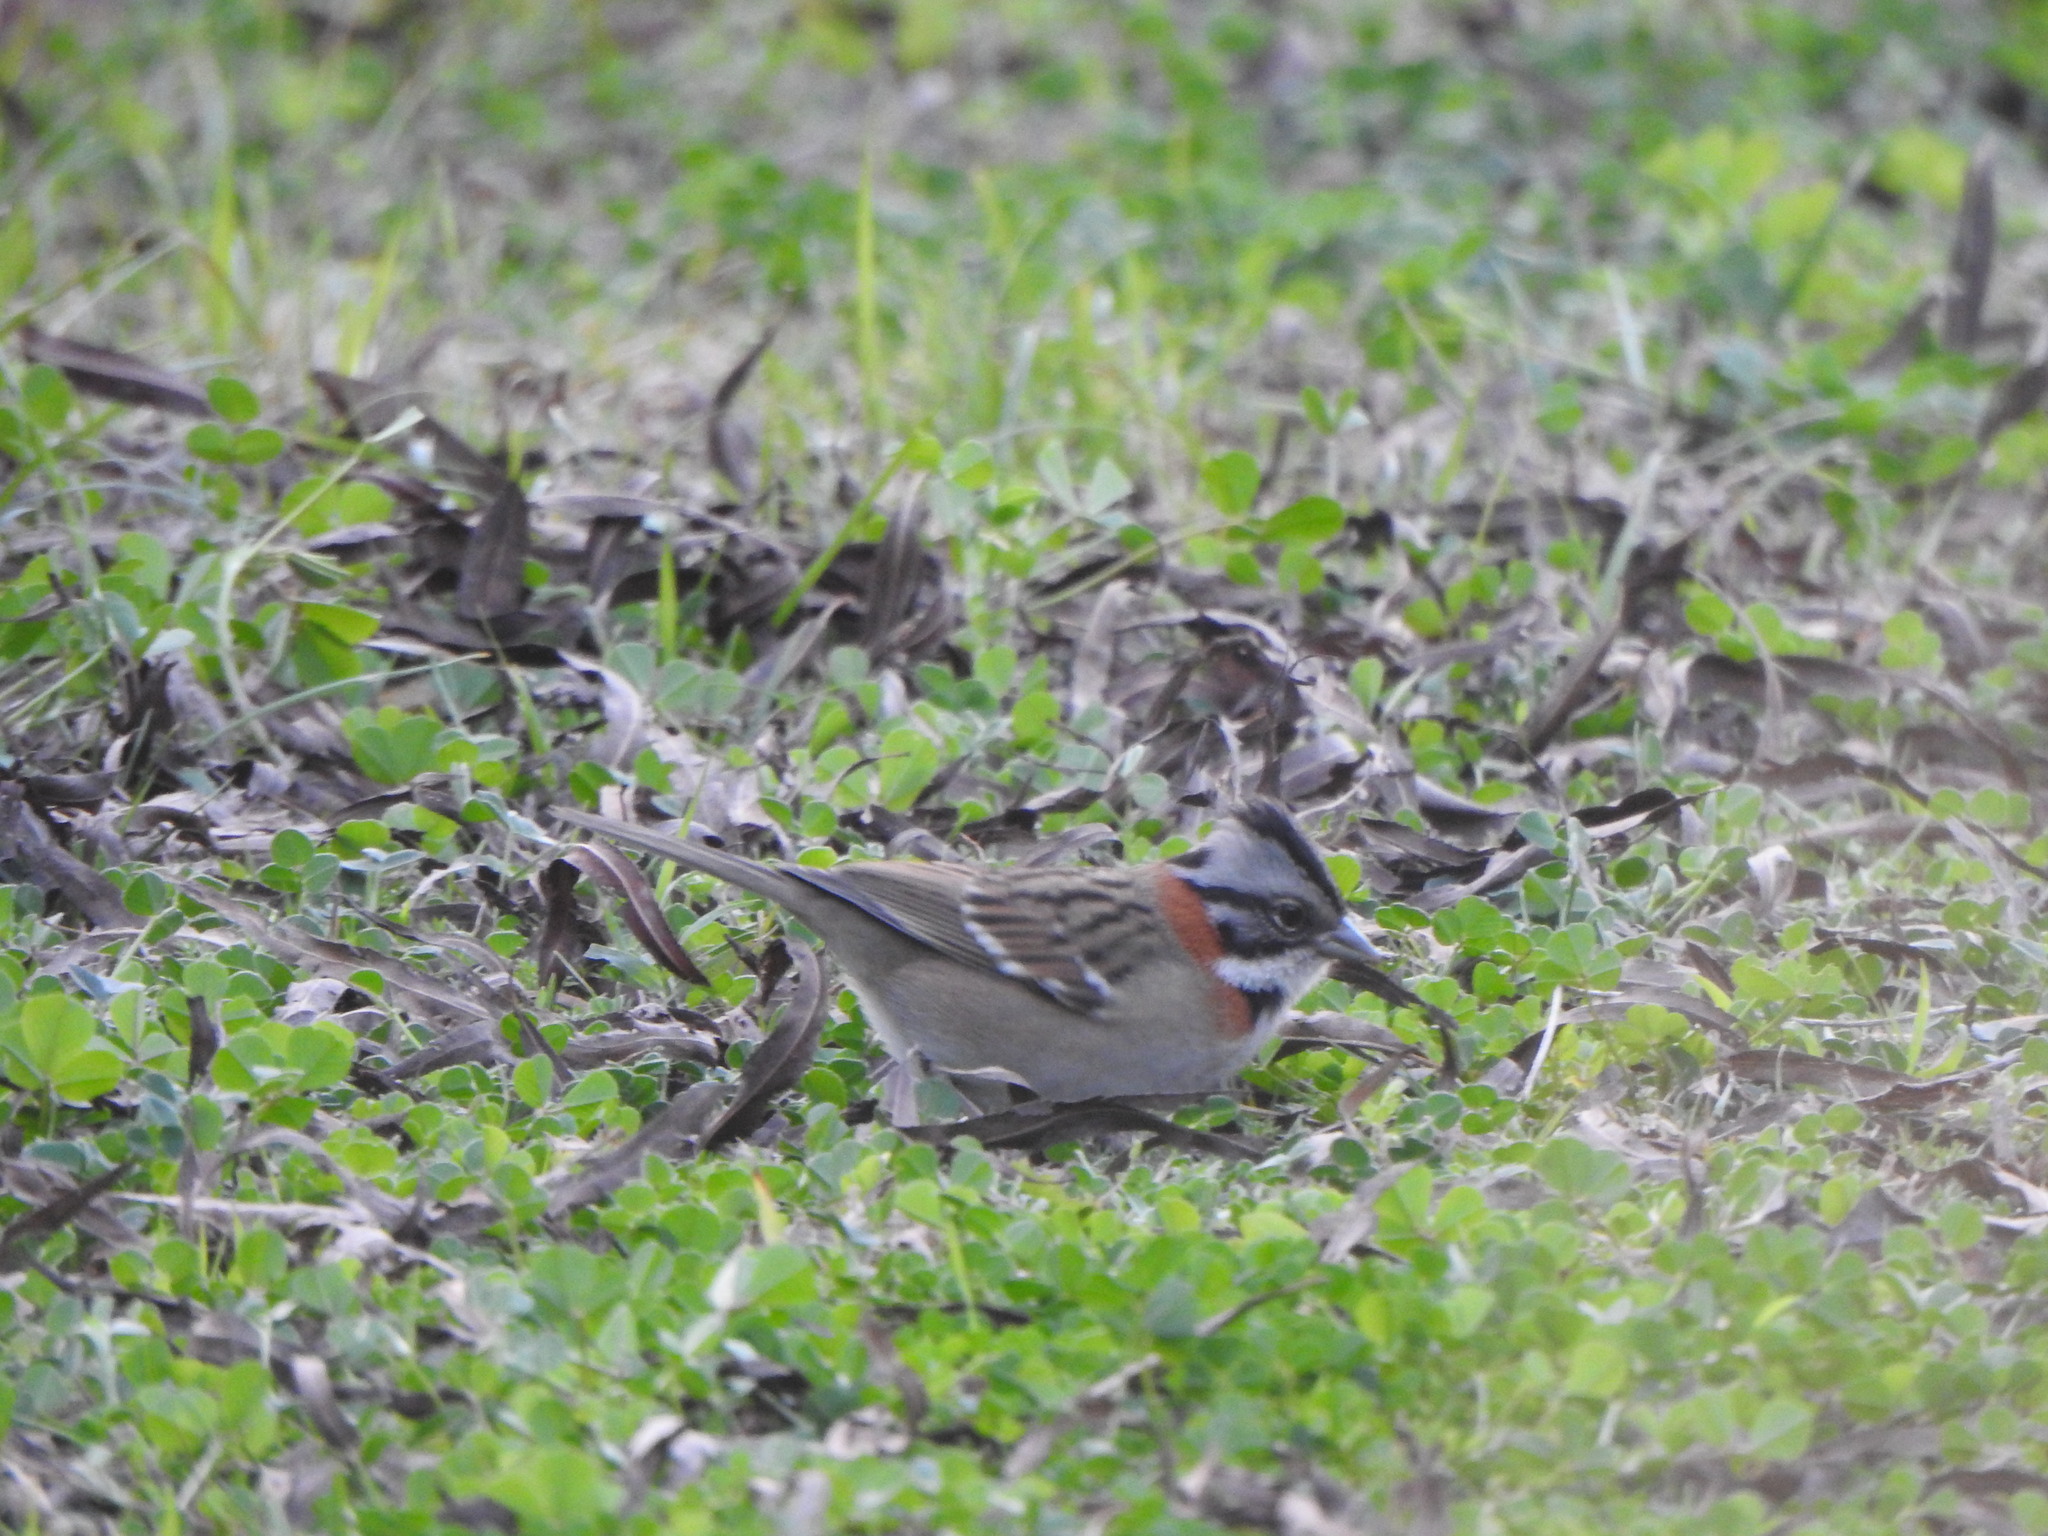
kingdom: Animalia
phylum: Chordata
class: Aves
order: Passeriformes
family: Passerellidae
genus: Zonotrichia
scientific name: Zonotrichia capensis
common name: Rufous-collared sparrow
